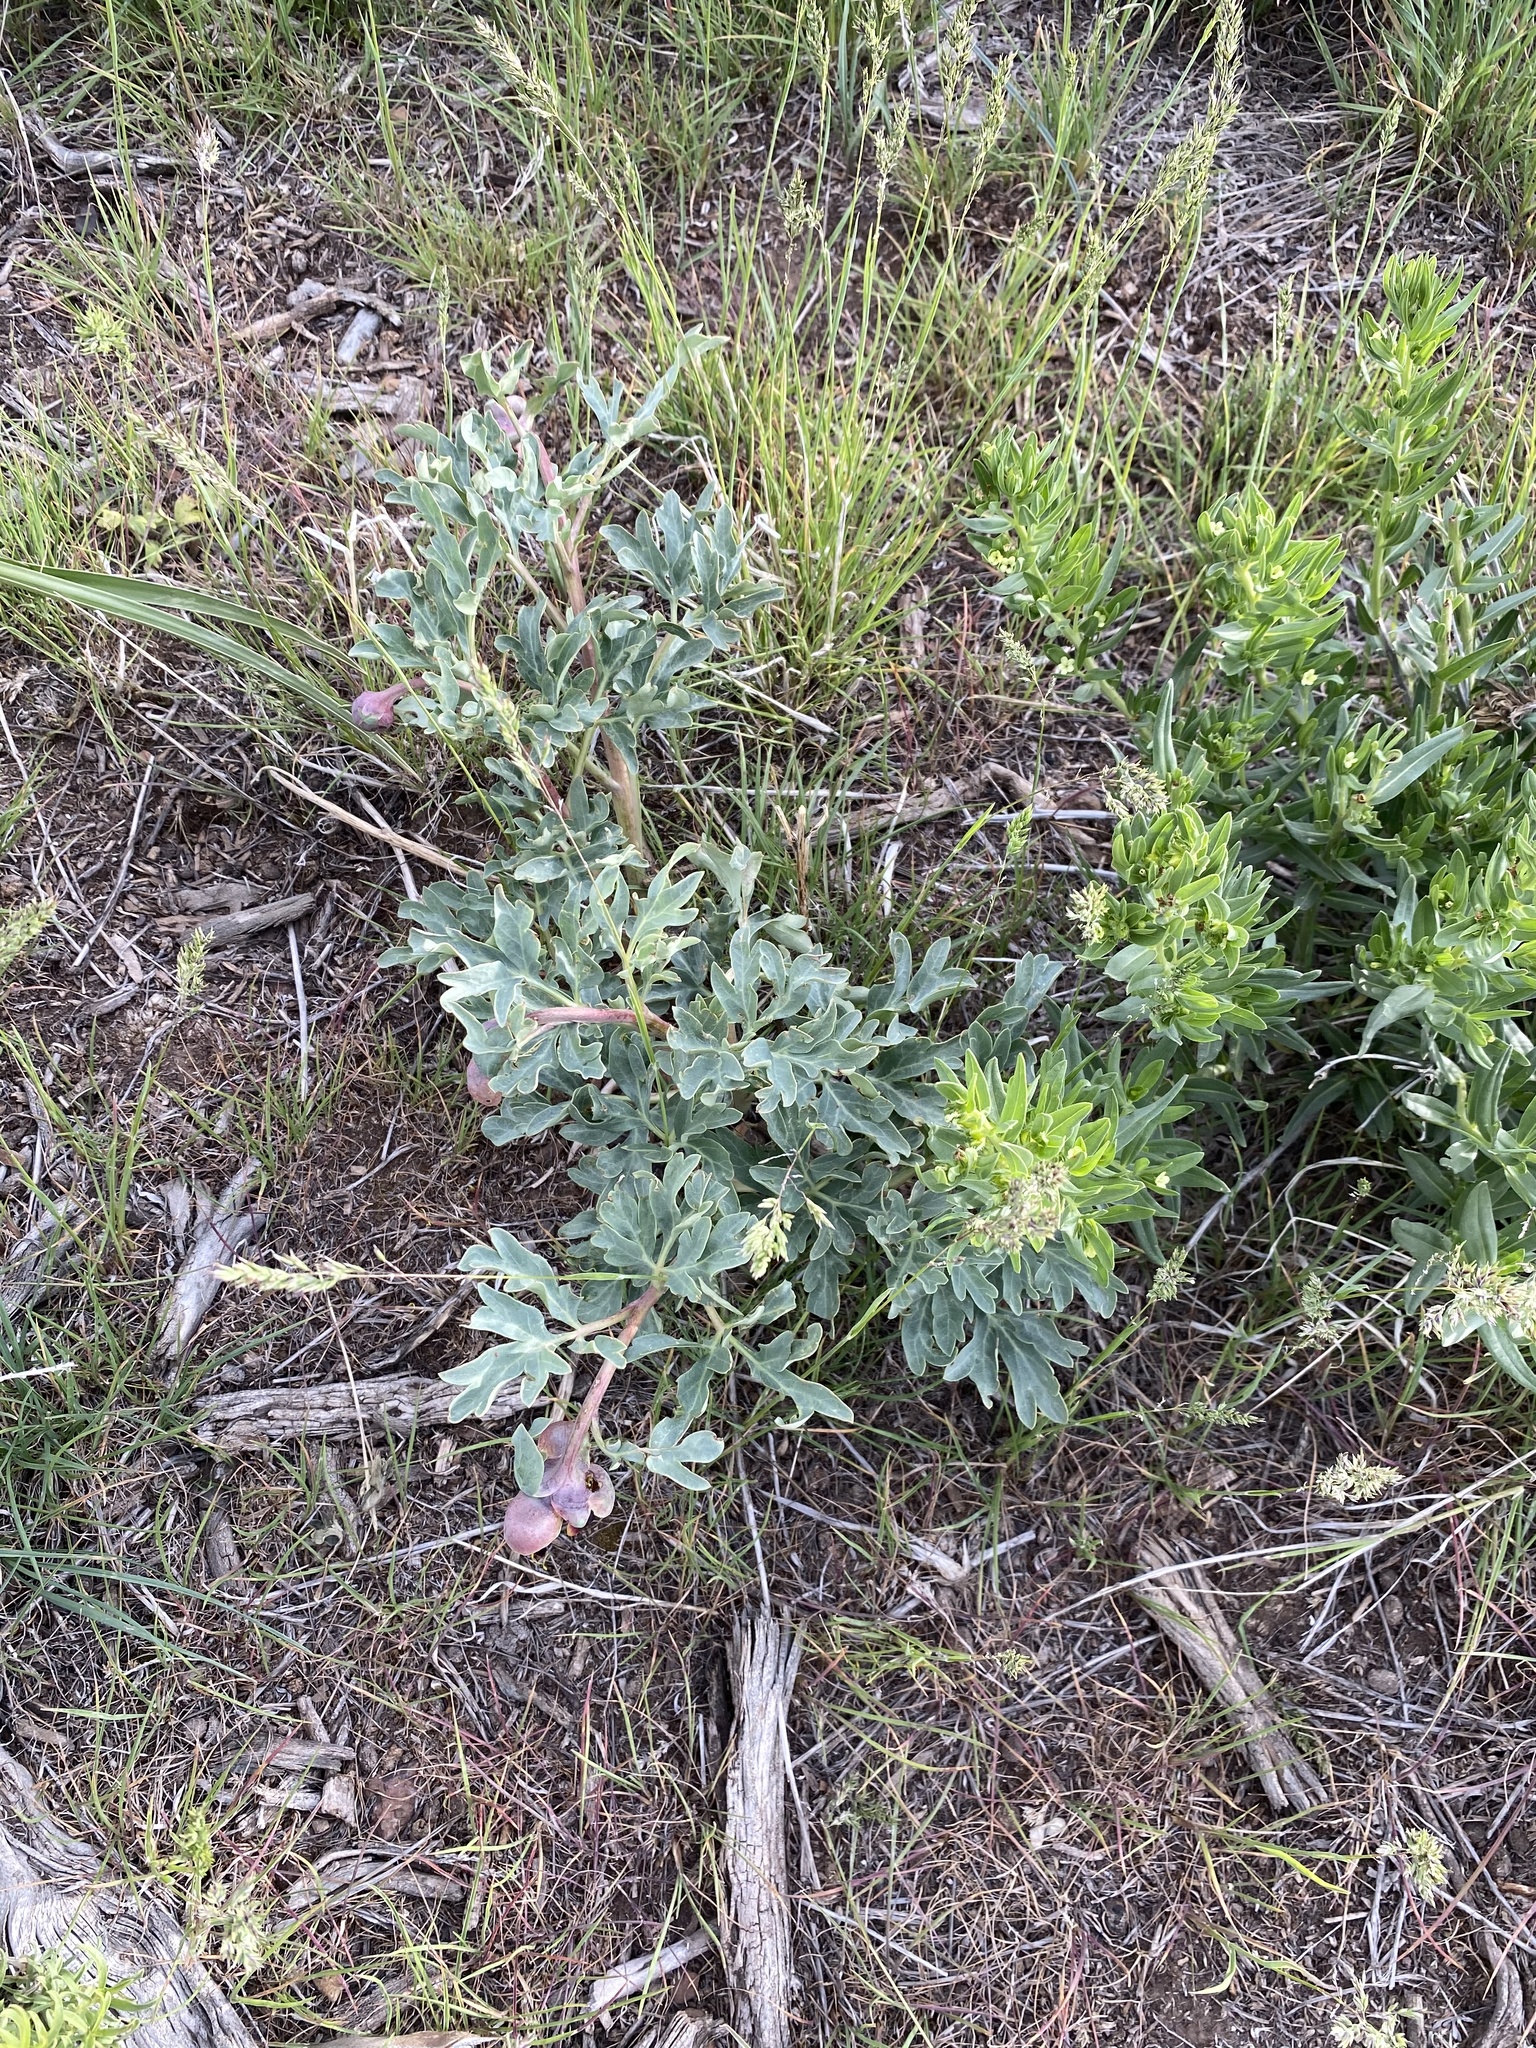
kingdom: Plantae
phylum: Tracheophyta
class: Magnoliopsida
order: Saxifragales
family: Paeoniaceae
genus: Paeonia
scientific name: Paeonia brownii
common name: Brown's peony
